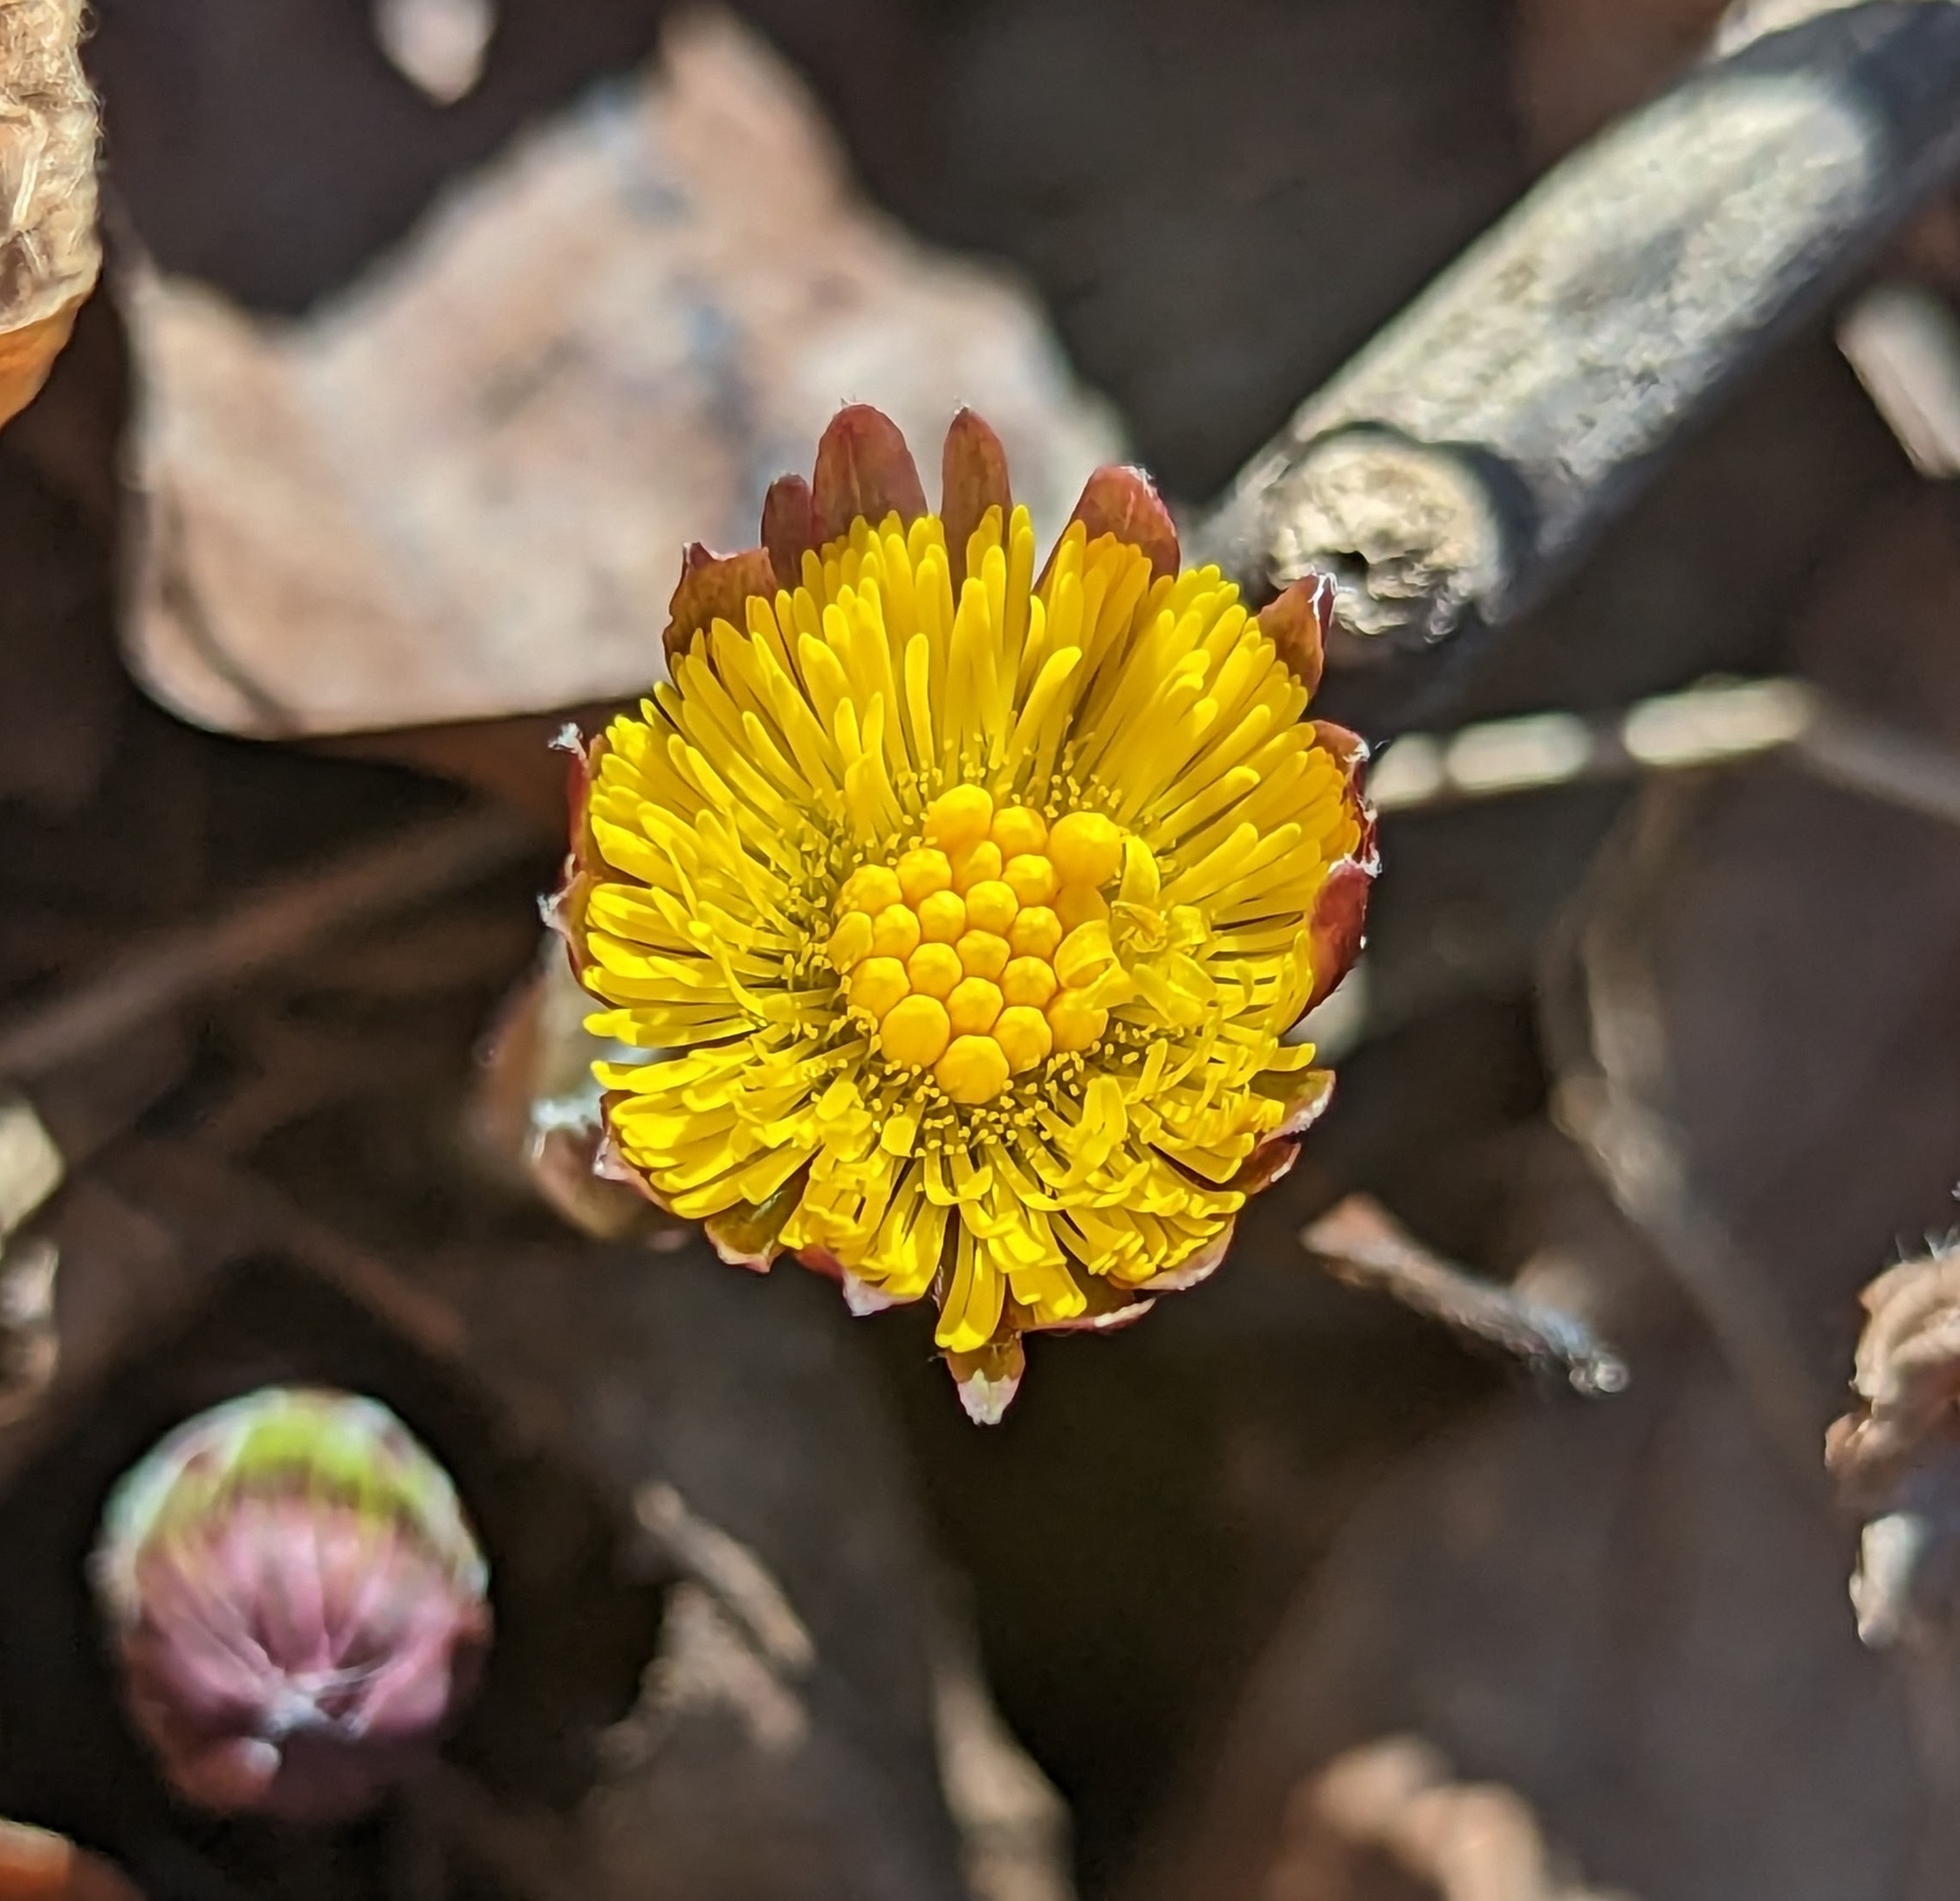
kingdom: Plantae
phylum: Tracheophyta
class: Magnoliopsida
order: Asterales
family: Asteraceae
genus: Tussilago
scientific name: Tussilago farfara
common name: Coltsfoot
